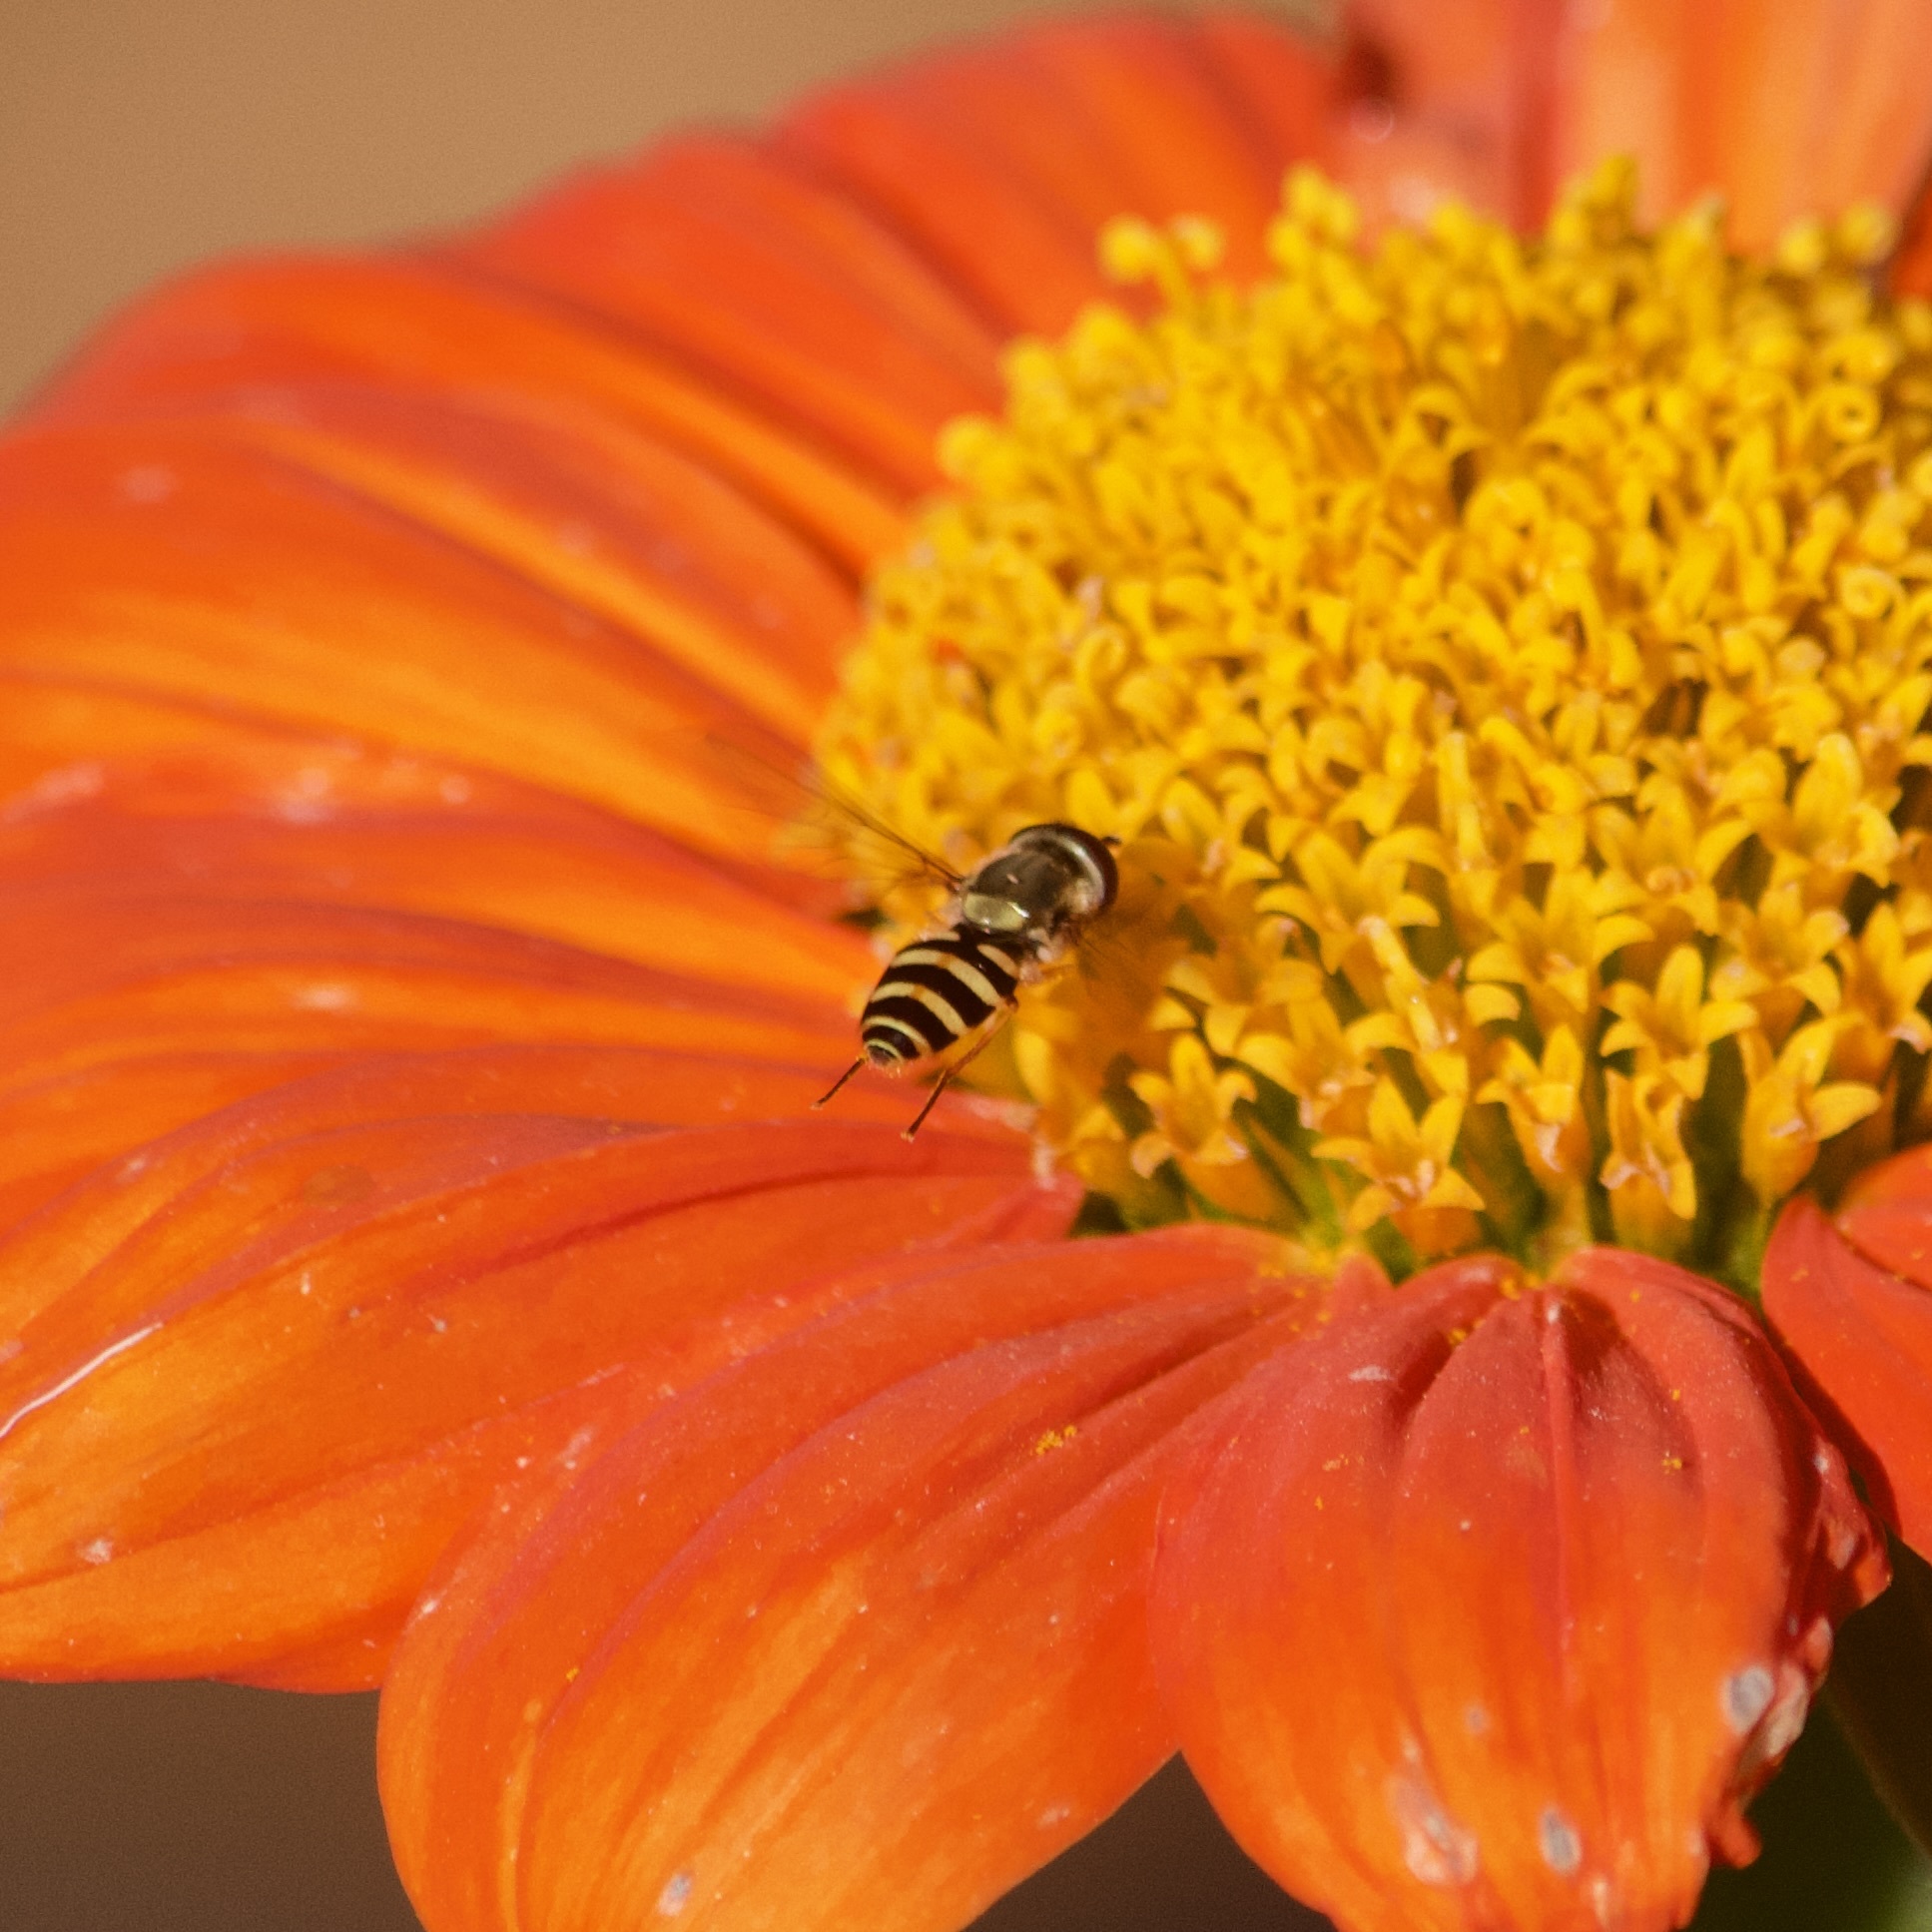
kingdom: Animalia
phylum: Arthropoda
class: Insecta
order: Diptera
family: Syrphidae
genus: Syrphus
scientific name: Syrphus
